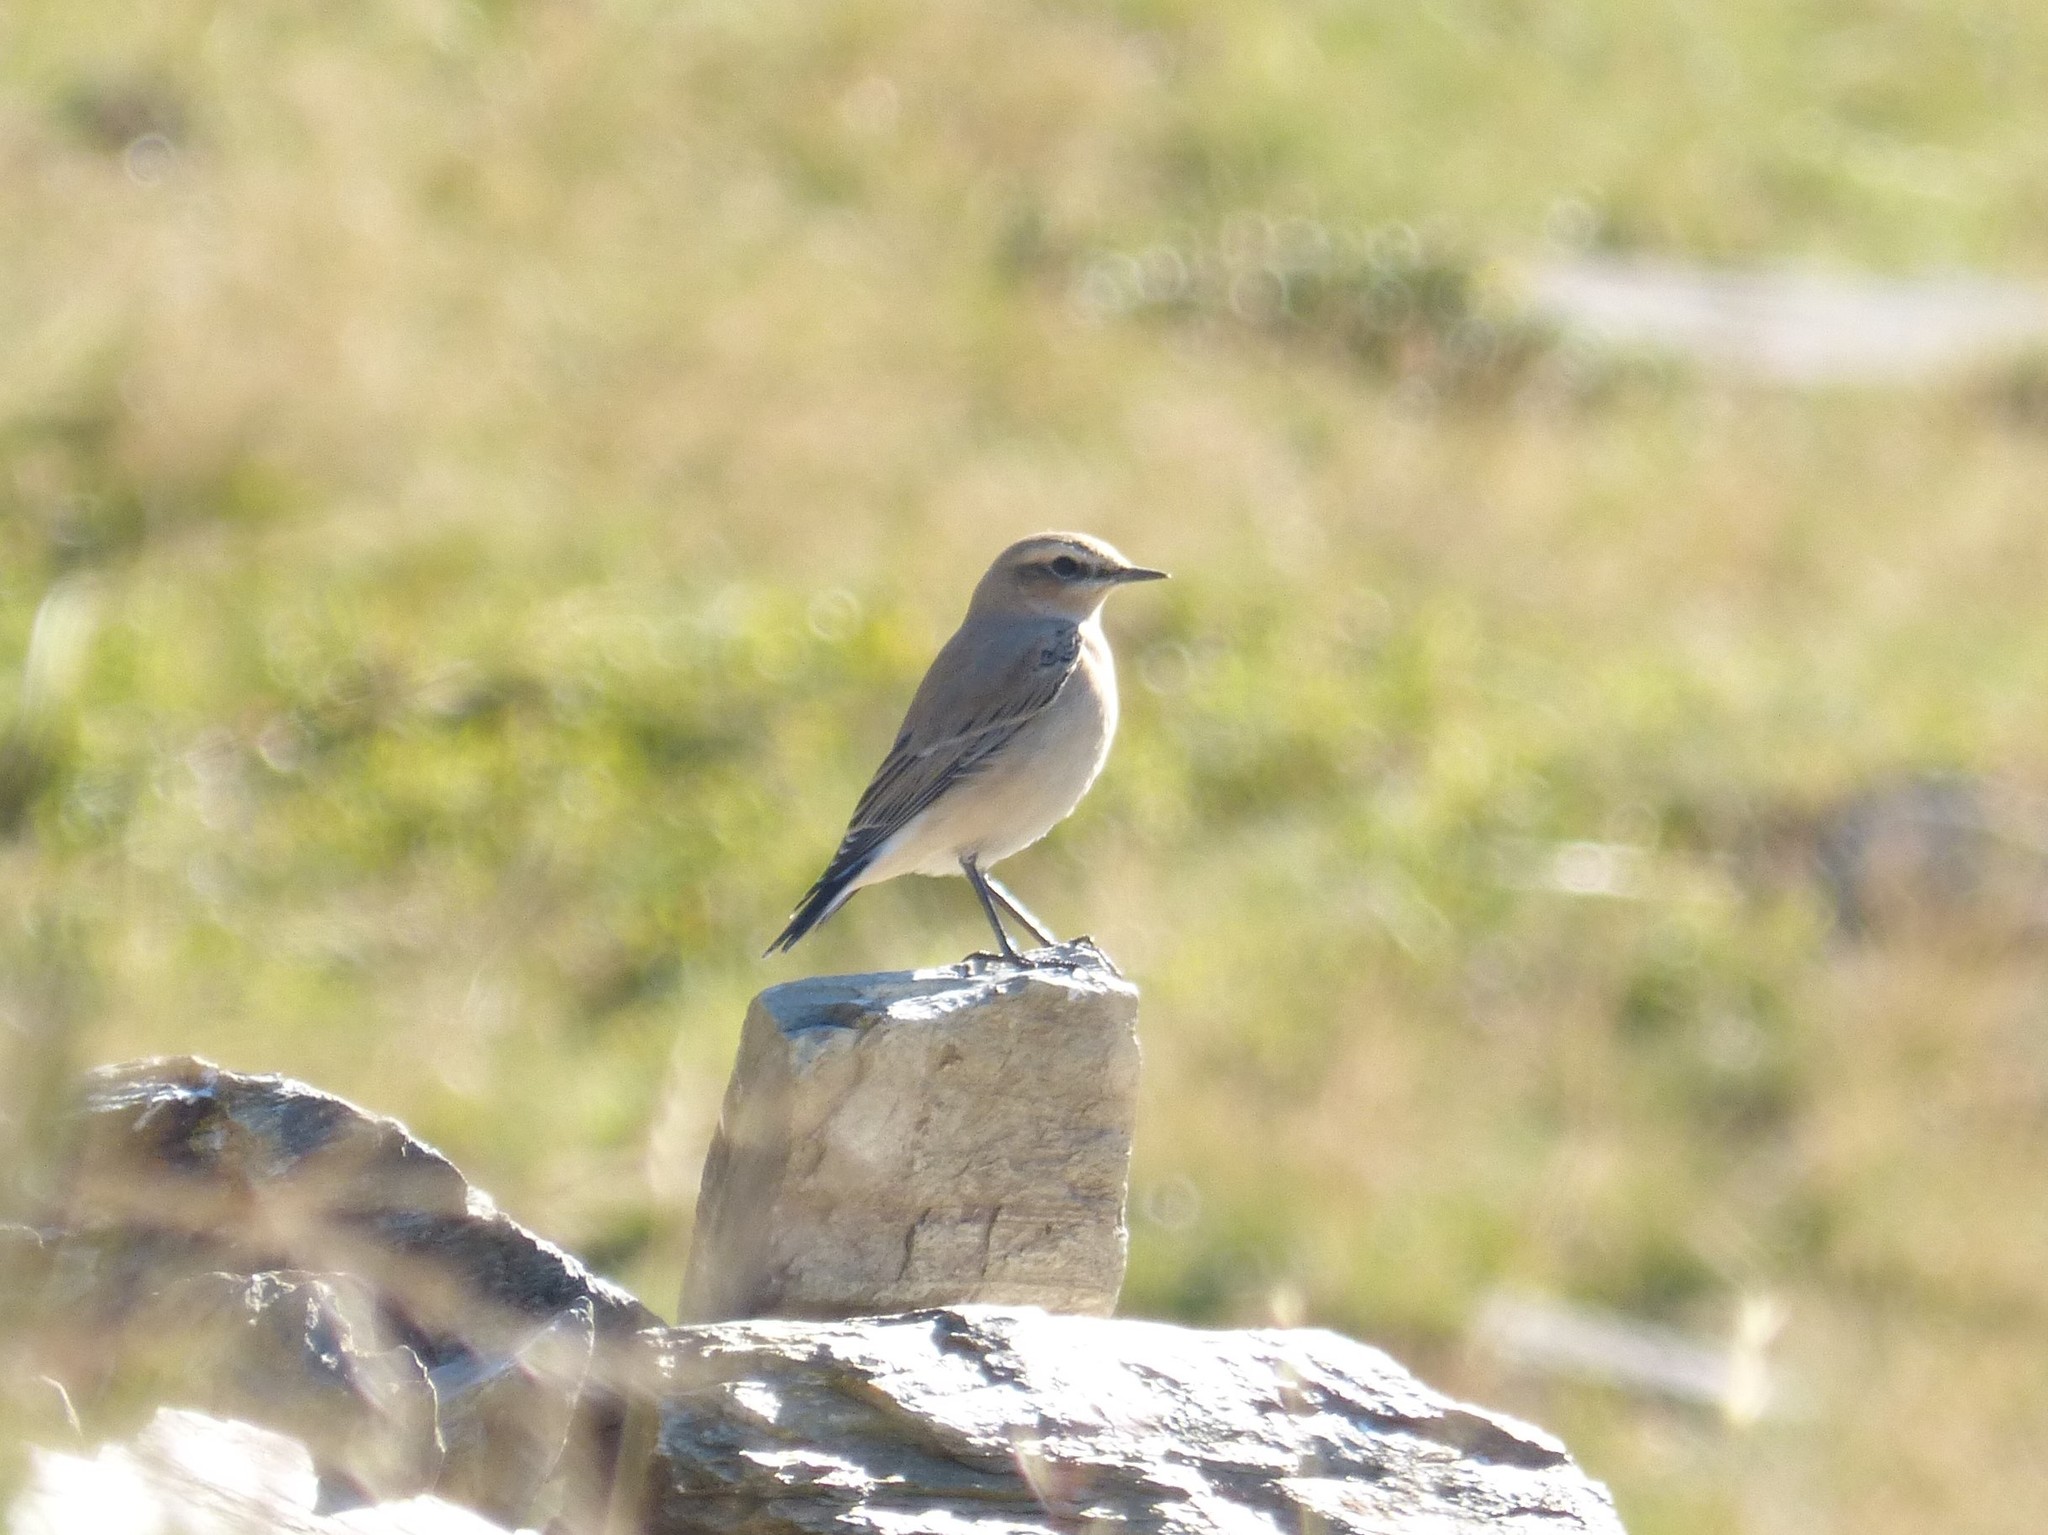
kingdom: Animalia
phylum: Chordata
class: Aves
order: Passeriformes
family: Muscicapidae
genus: Oenanthe
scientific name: Oenanthe oenanthe
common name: Northern wheatear
